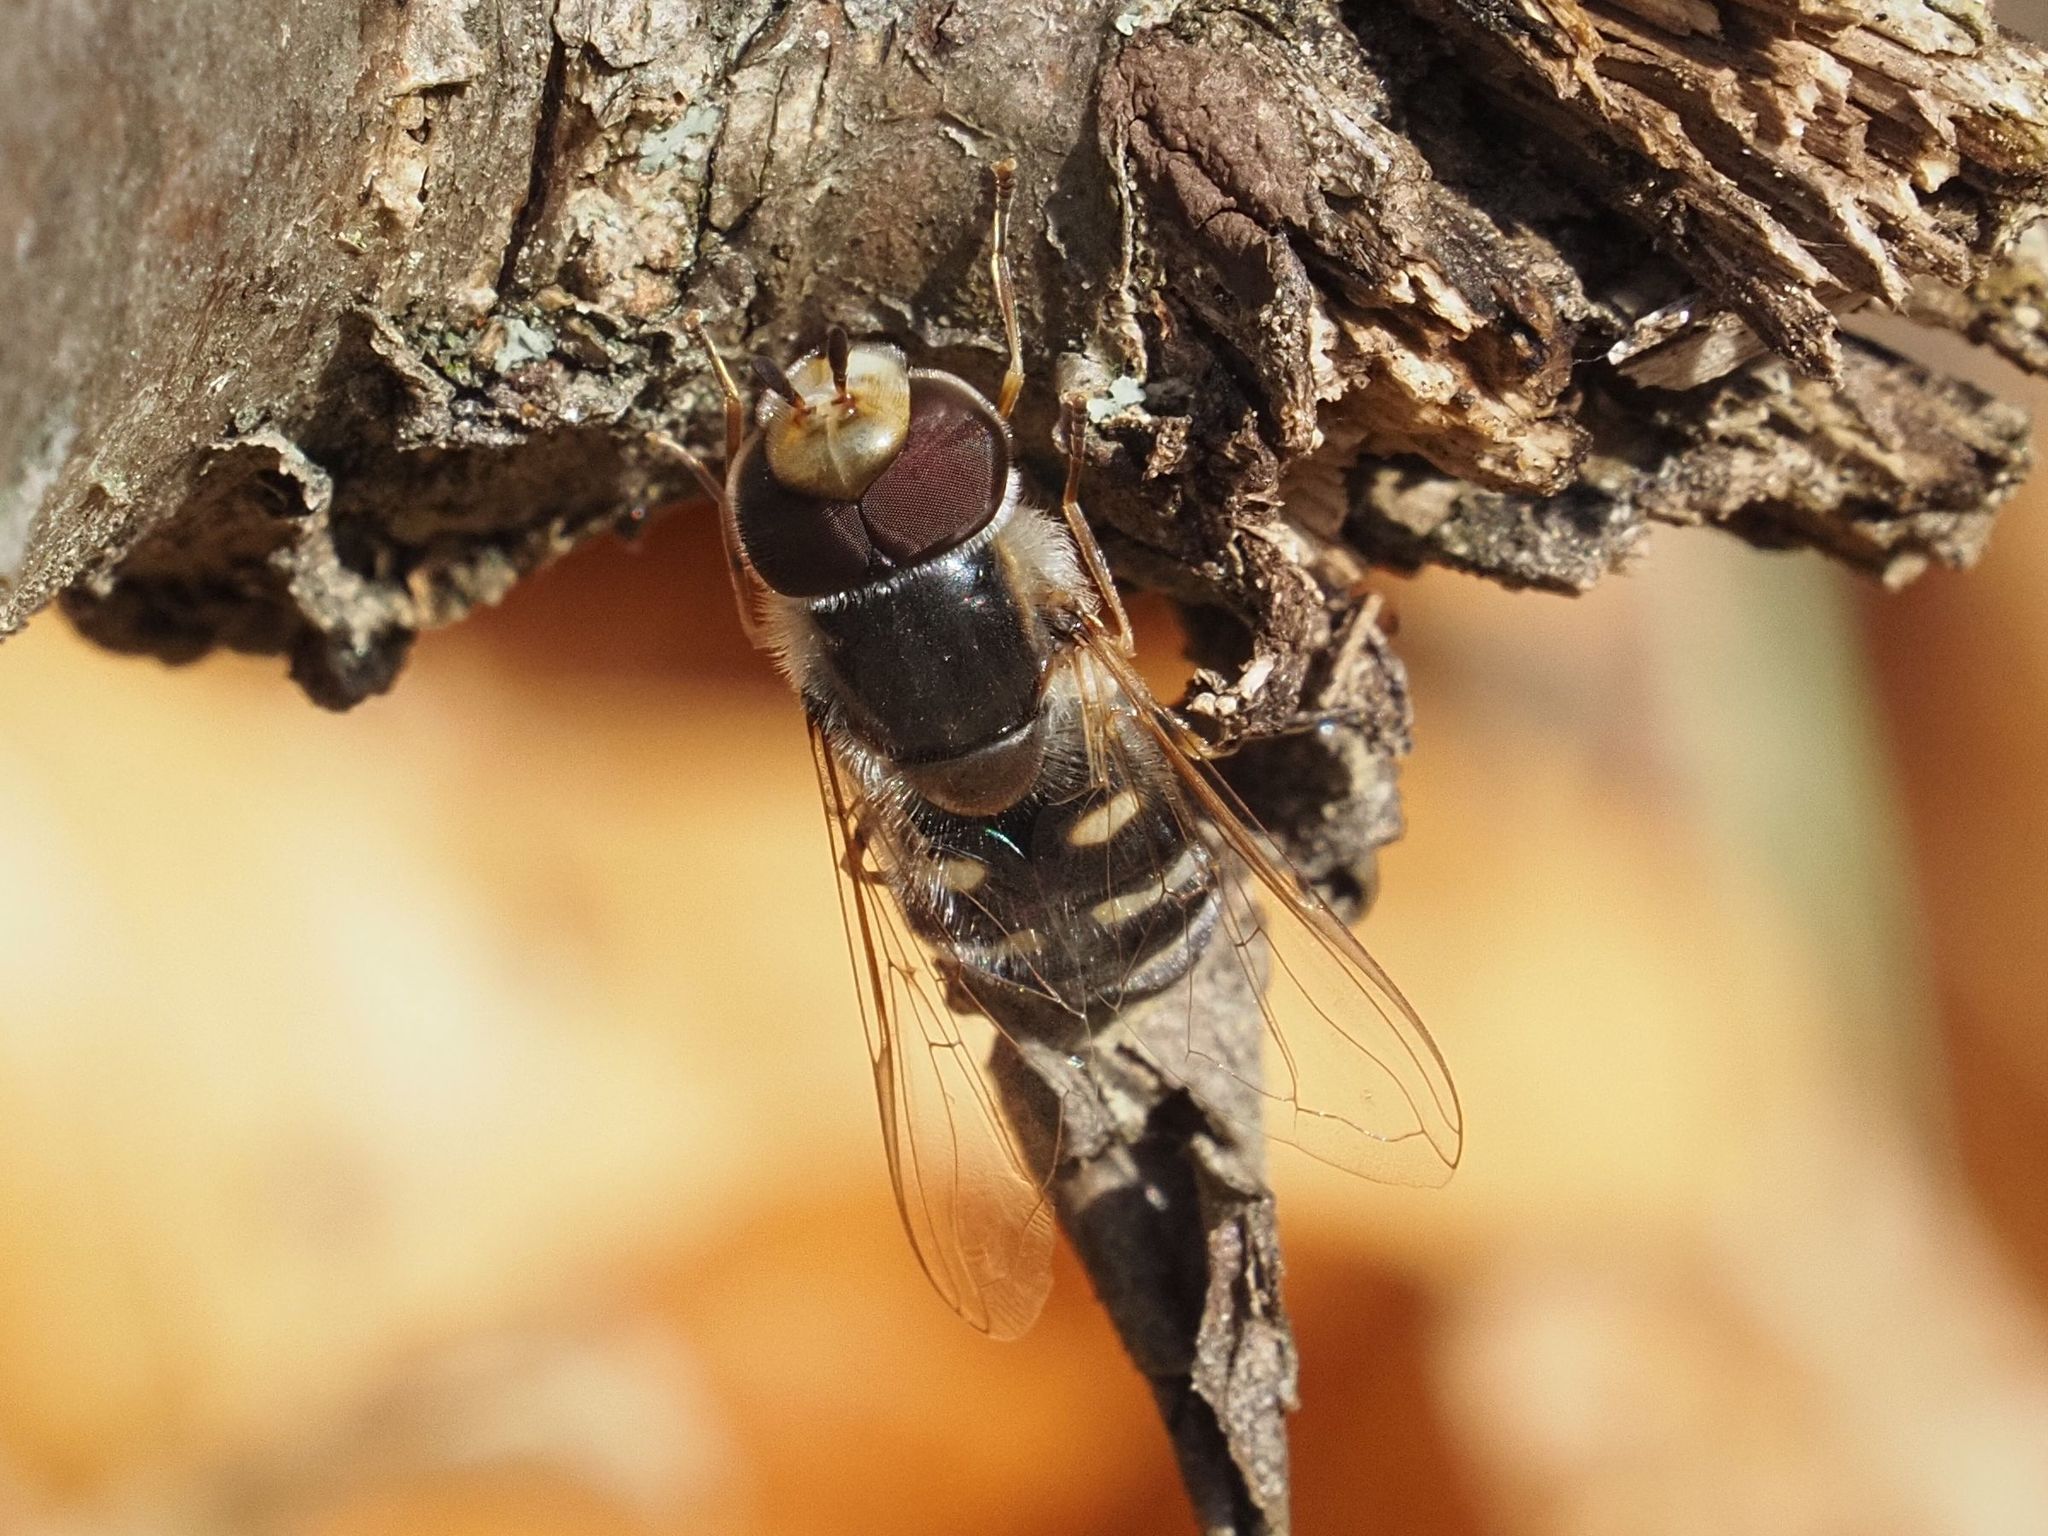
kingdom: Animalia
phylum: Arthropoda
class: Insecta
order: Diptera
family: Syrphidae
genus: Scaeva
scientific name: Scaeva pyrastri
